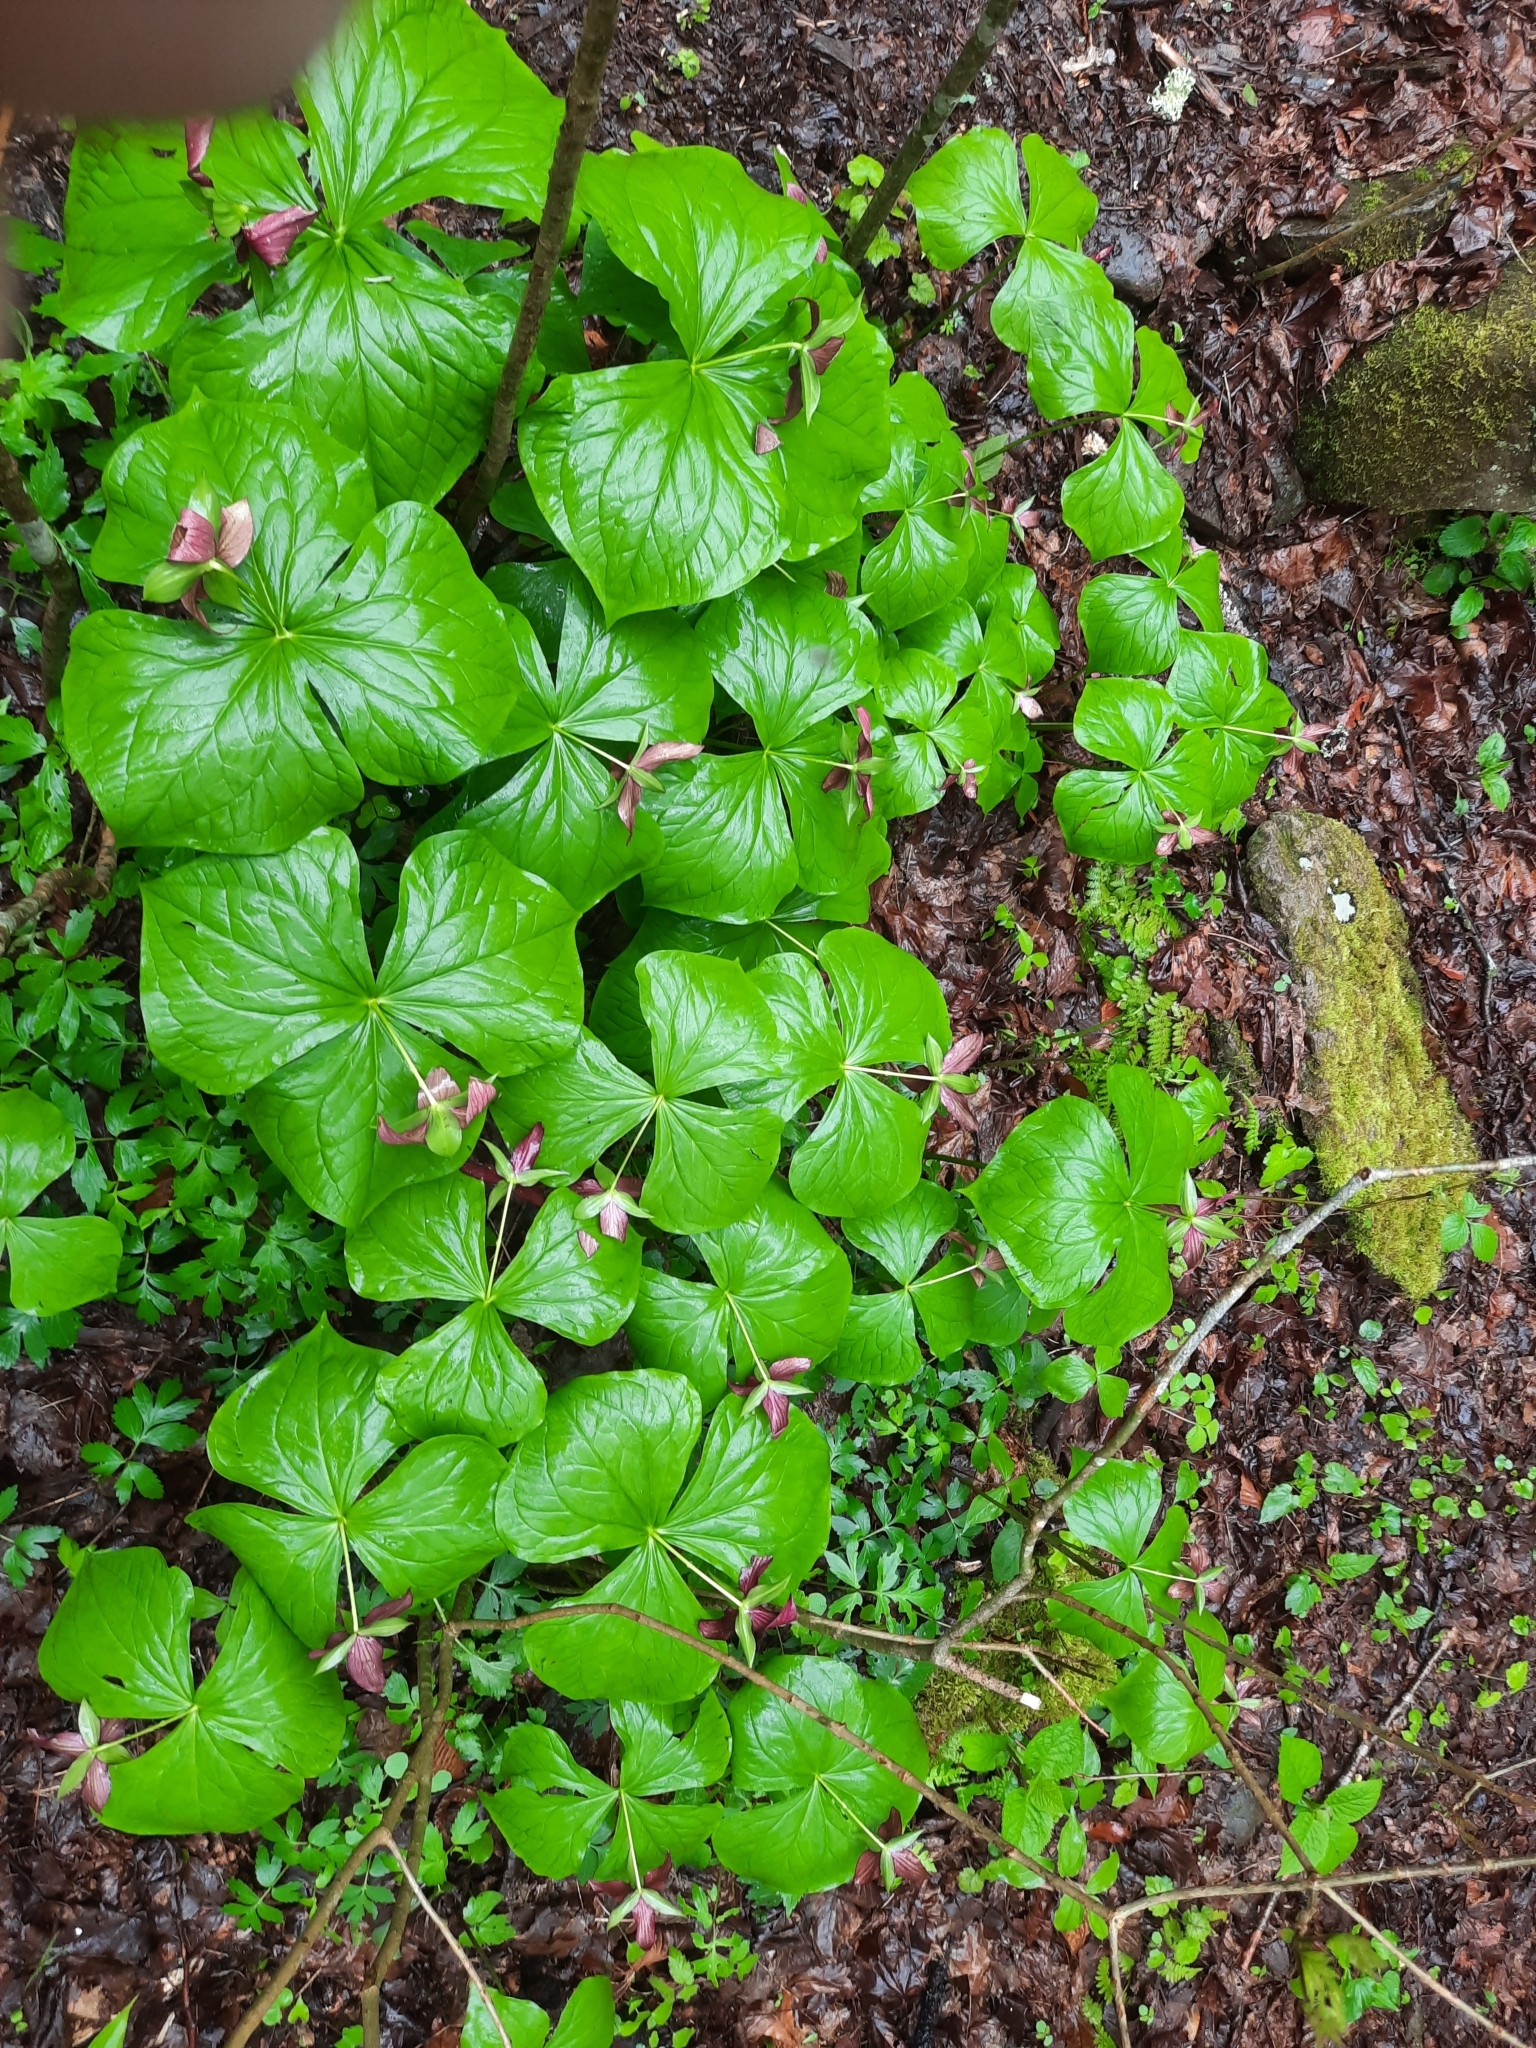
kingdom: Plantae
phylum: Tracheophyta
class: Liliopsida
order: Liliales
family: Melanthiaceae
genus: Trillium
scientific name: Trillium erectum
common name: Purple trillium
